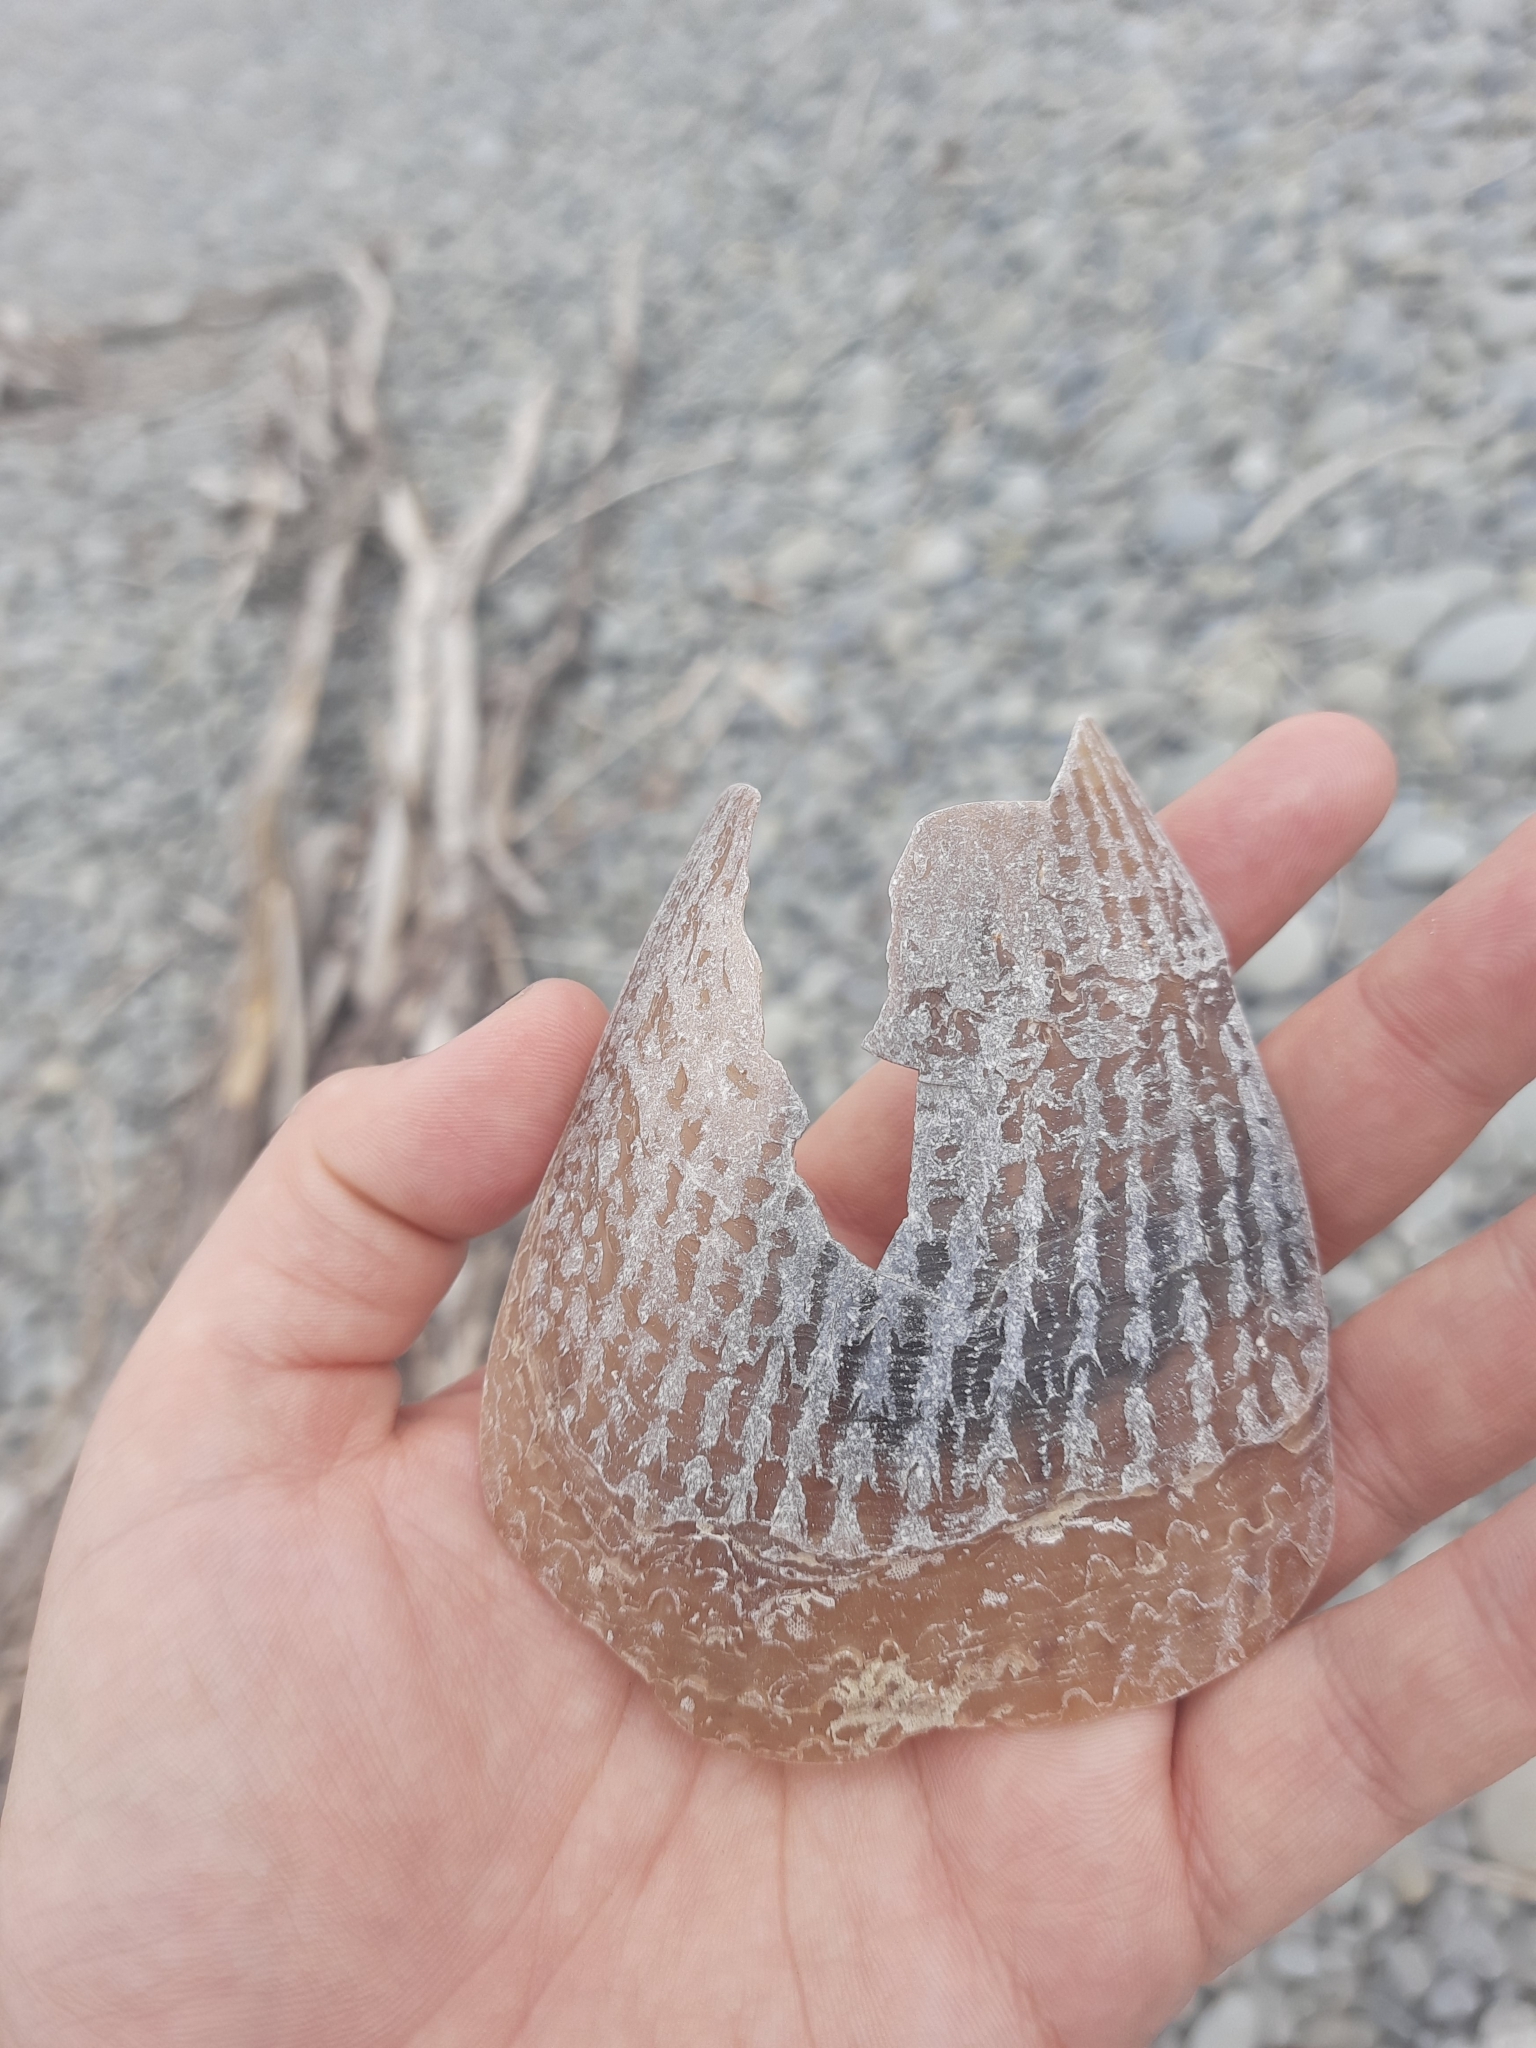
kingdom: Animalia
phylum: Mollusca
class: Bivalvia
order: Ostreida
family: Pinnidae
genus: Atrina
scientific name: Atrina zelandica
